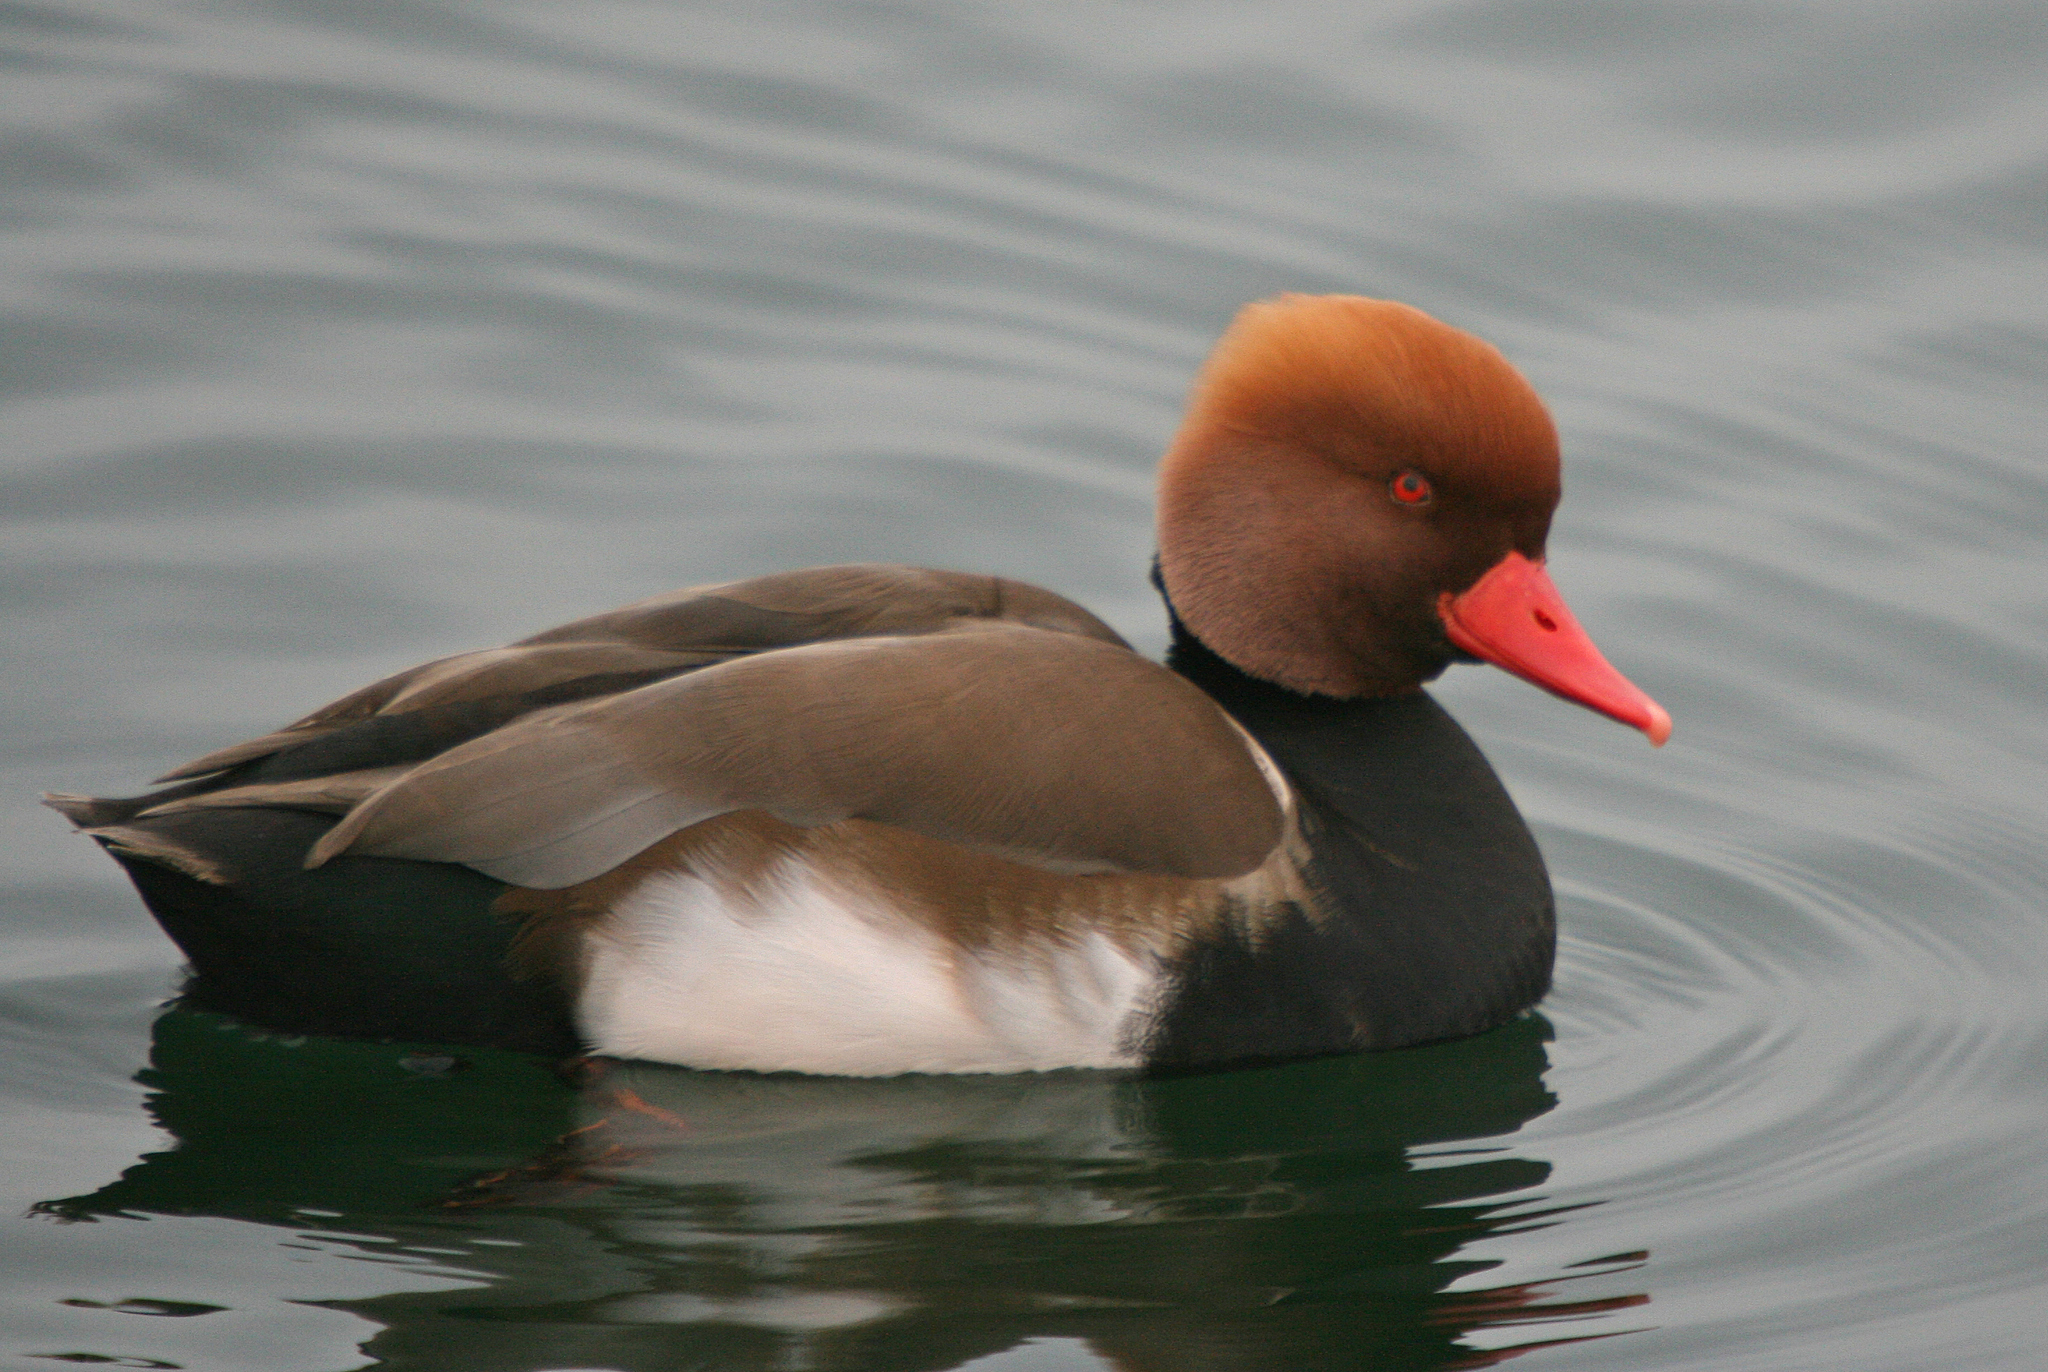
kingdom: Animalia
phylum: Chordata
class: Aves
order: Anseriformes
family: Anatidae
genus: Netta
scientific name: Netta rufina
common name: Red-crested pochard
